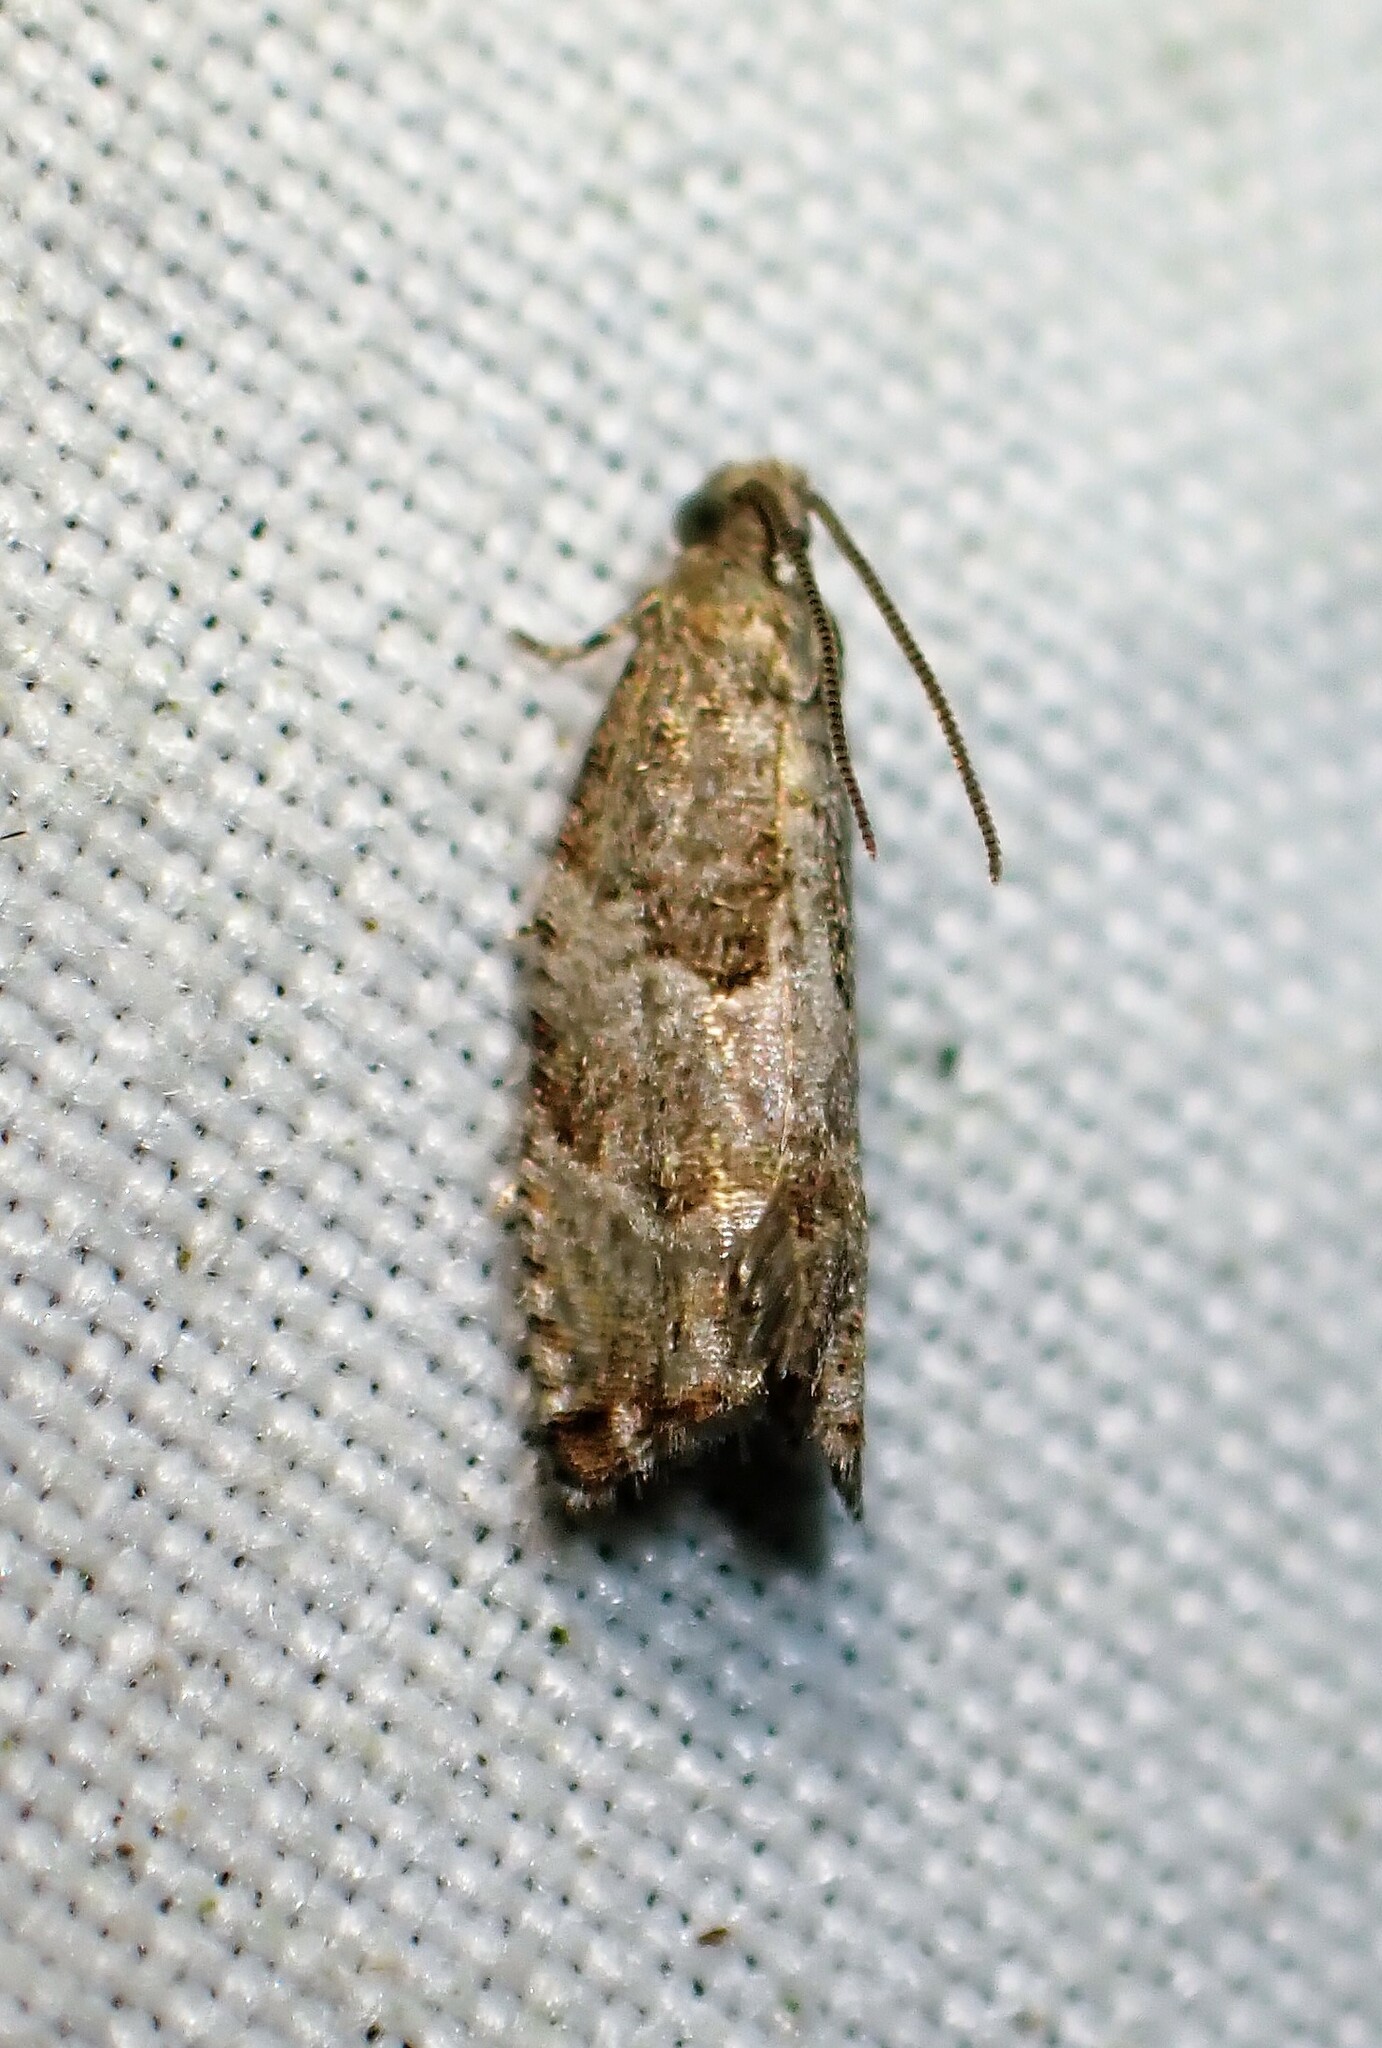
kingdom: Animalia
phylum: Arthropoda
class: Insecta
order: Lepidoptera
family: Tortricidae
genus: Rhopobota
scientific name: Rhopobota naevana
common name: Blackheaded fireworm, holly tortrix
